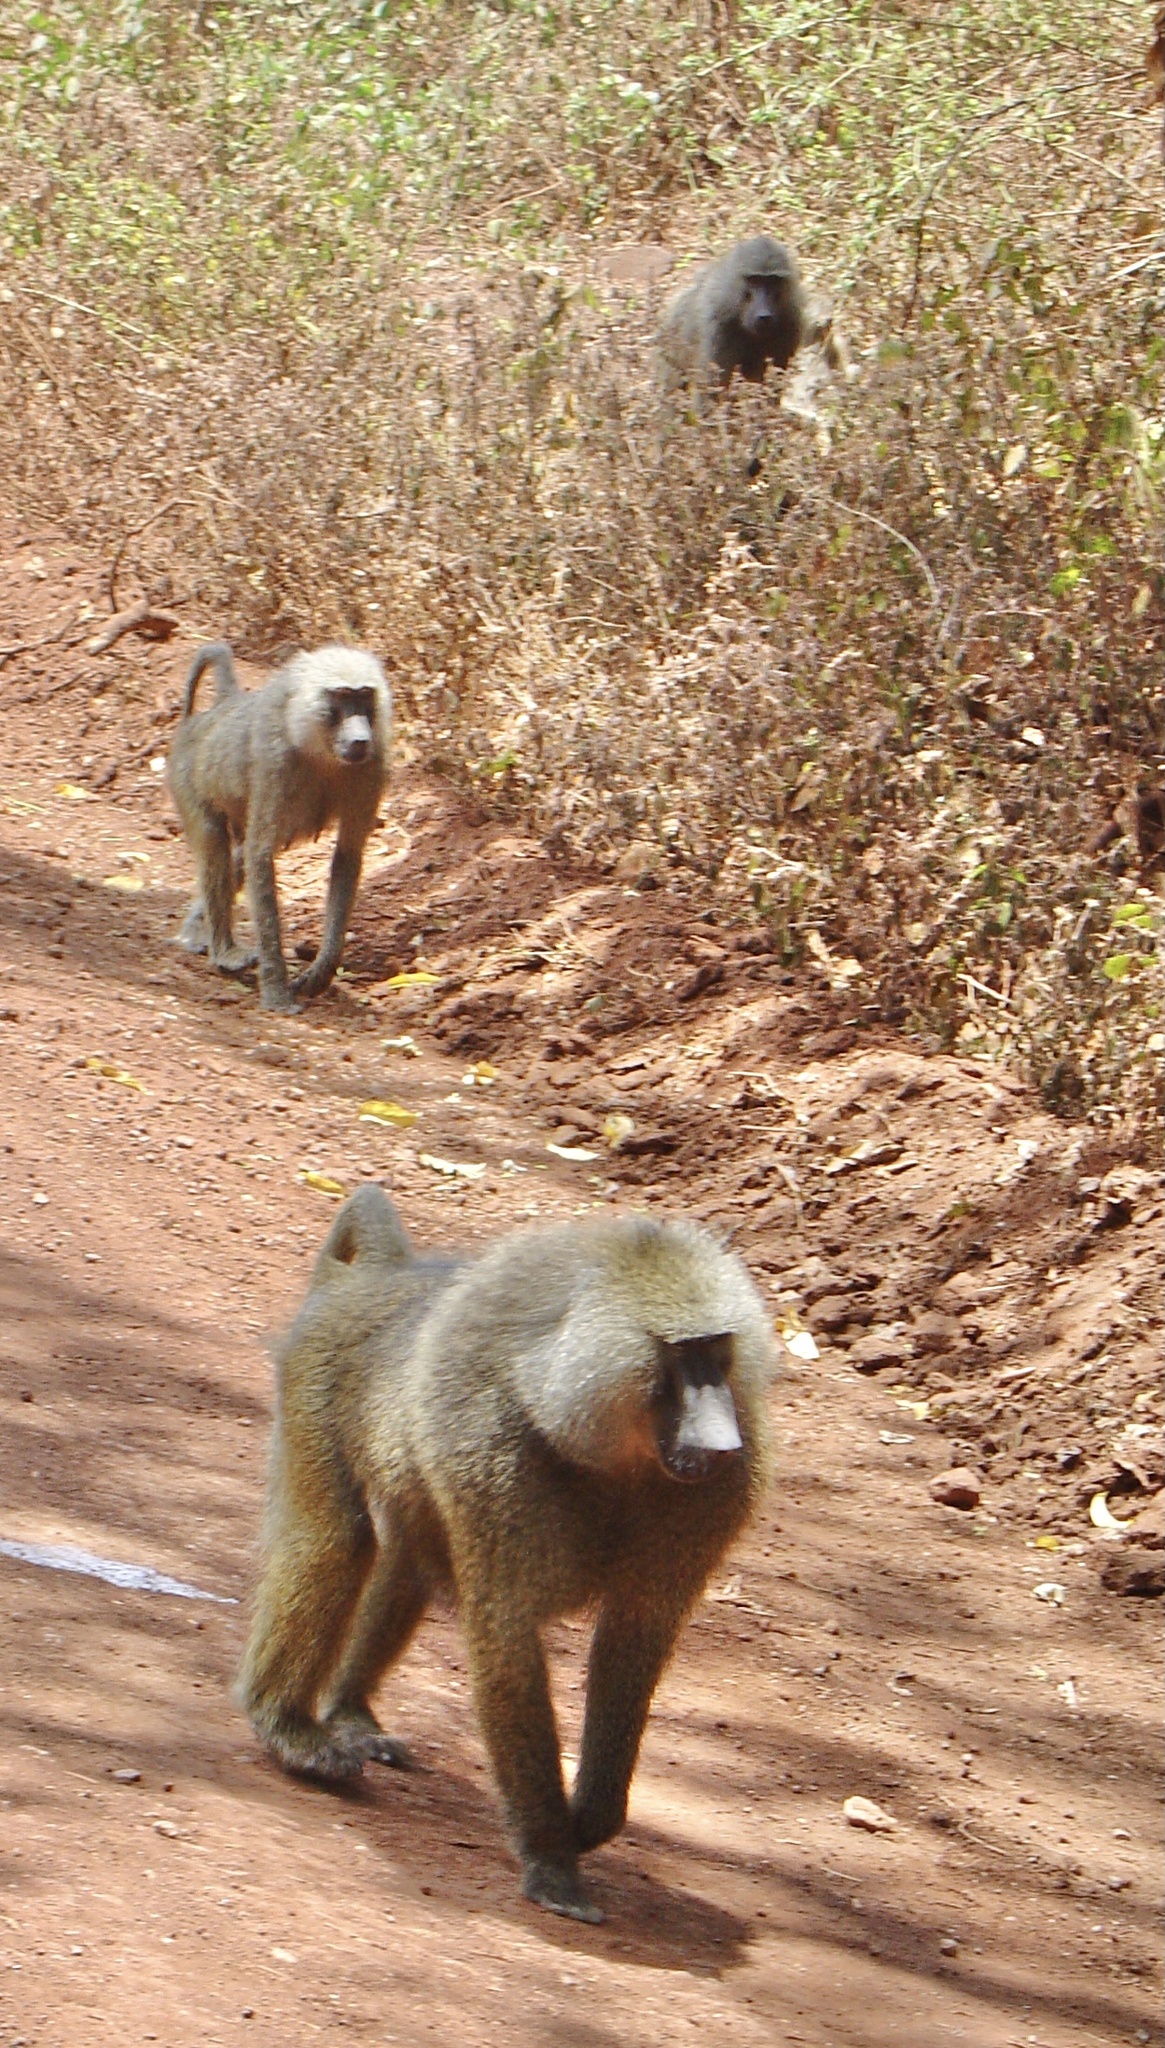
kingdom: Animalia
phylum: Chordata
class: Mammalia
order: Primates
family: Cercopithecidae
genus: Papio
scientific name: Papio anubis
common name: Olive baboon
